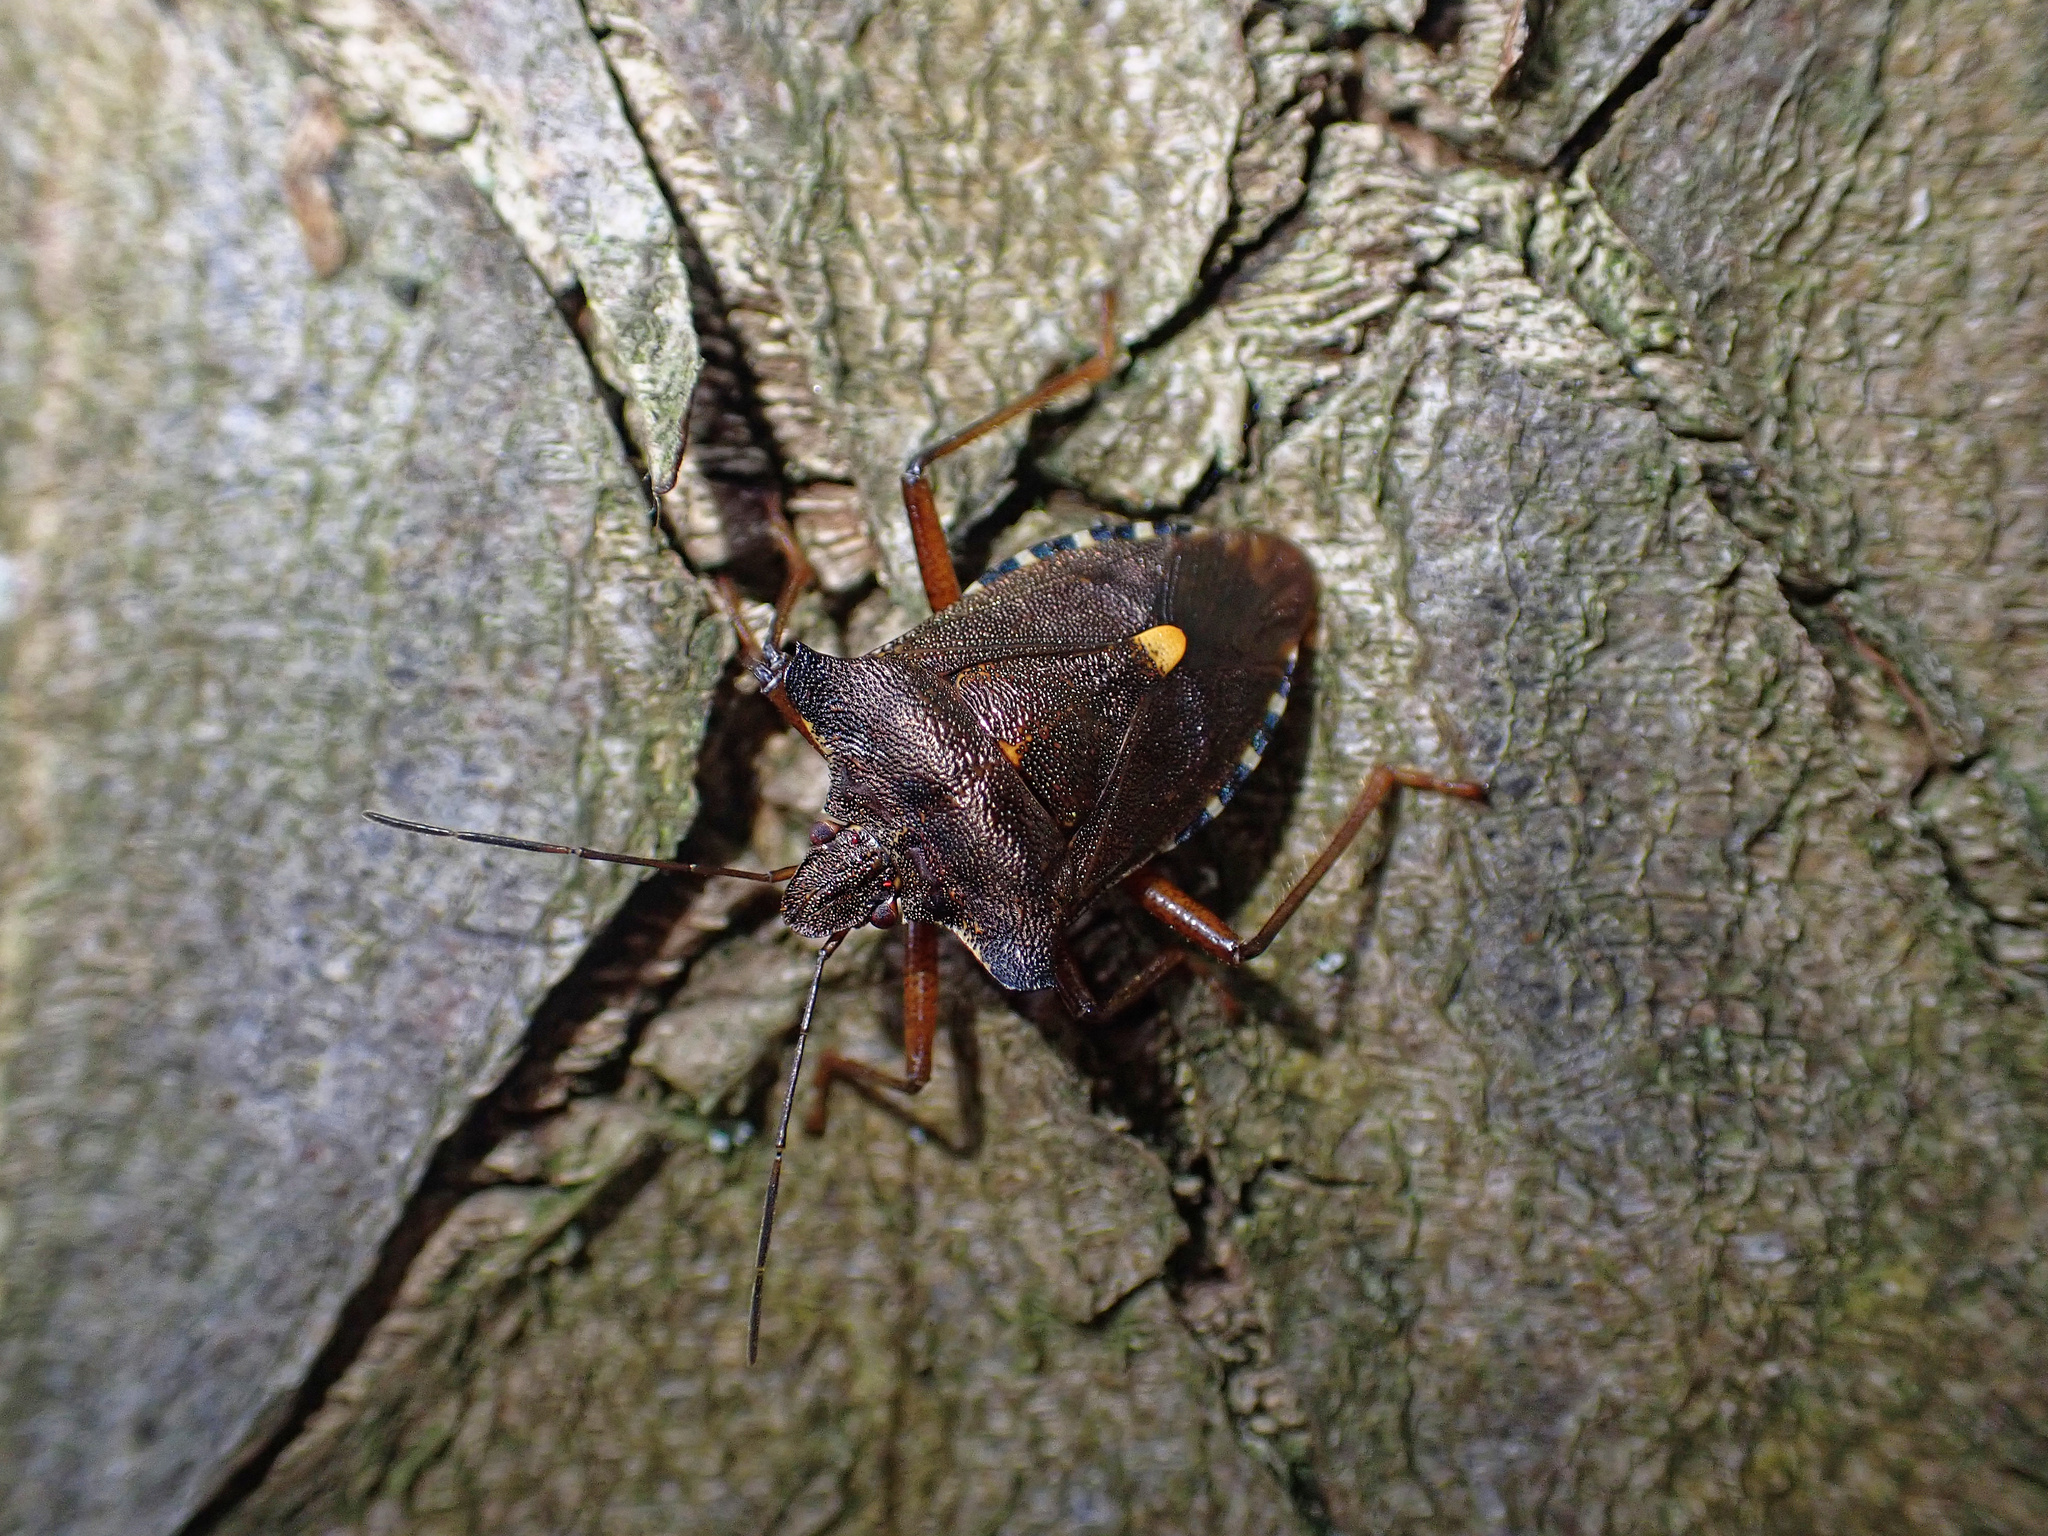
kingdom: Animalia
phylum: Arthropoda
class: Insecta
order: Hemiptera
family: Pentatomidae
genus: Pentatoma
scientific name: Pentatoma rufipes
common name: Forest bug
